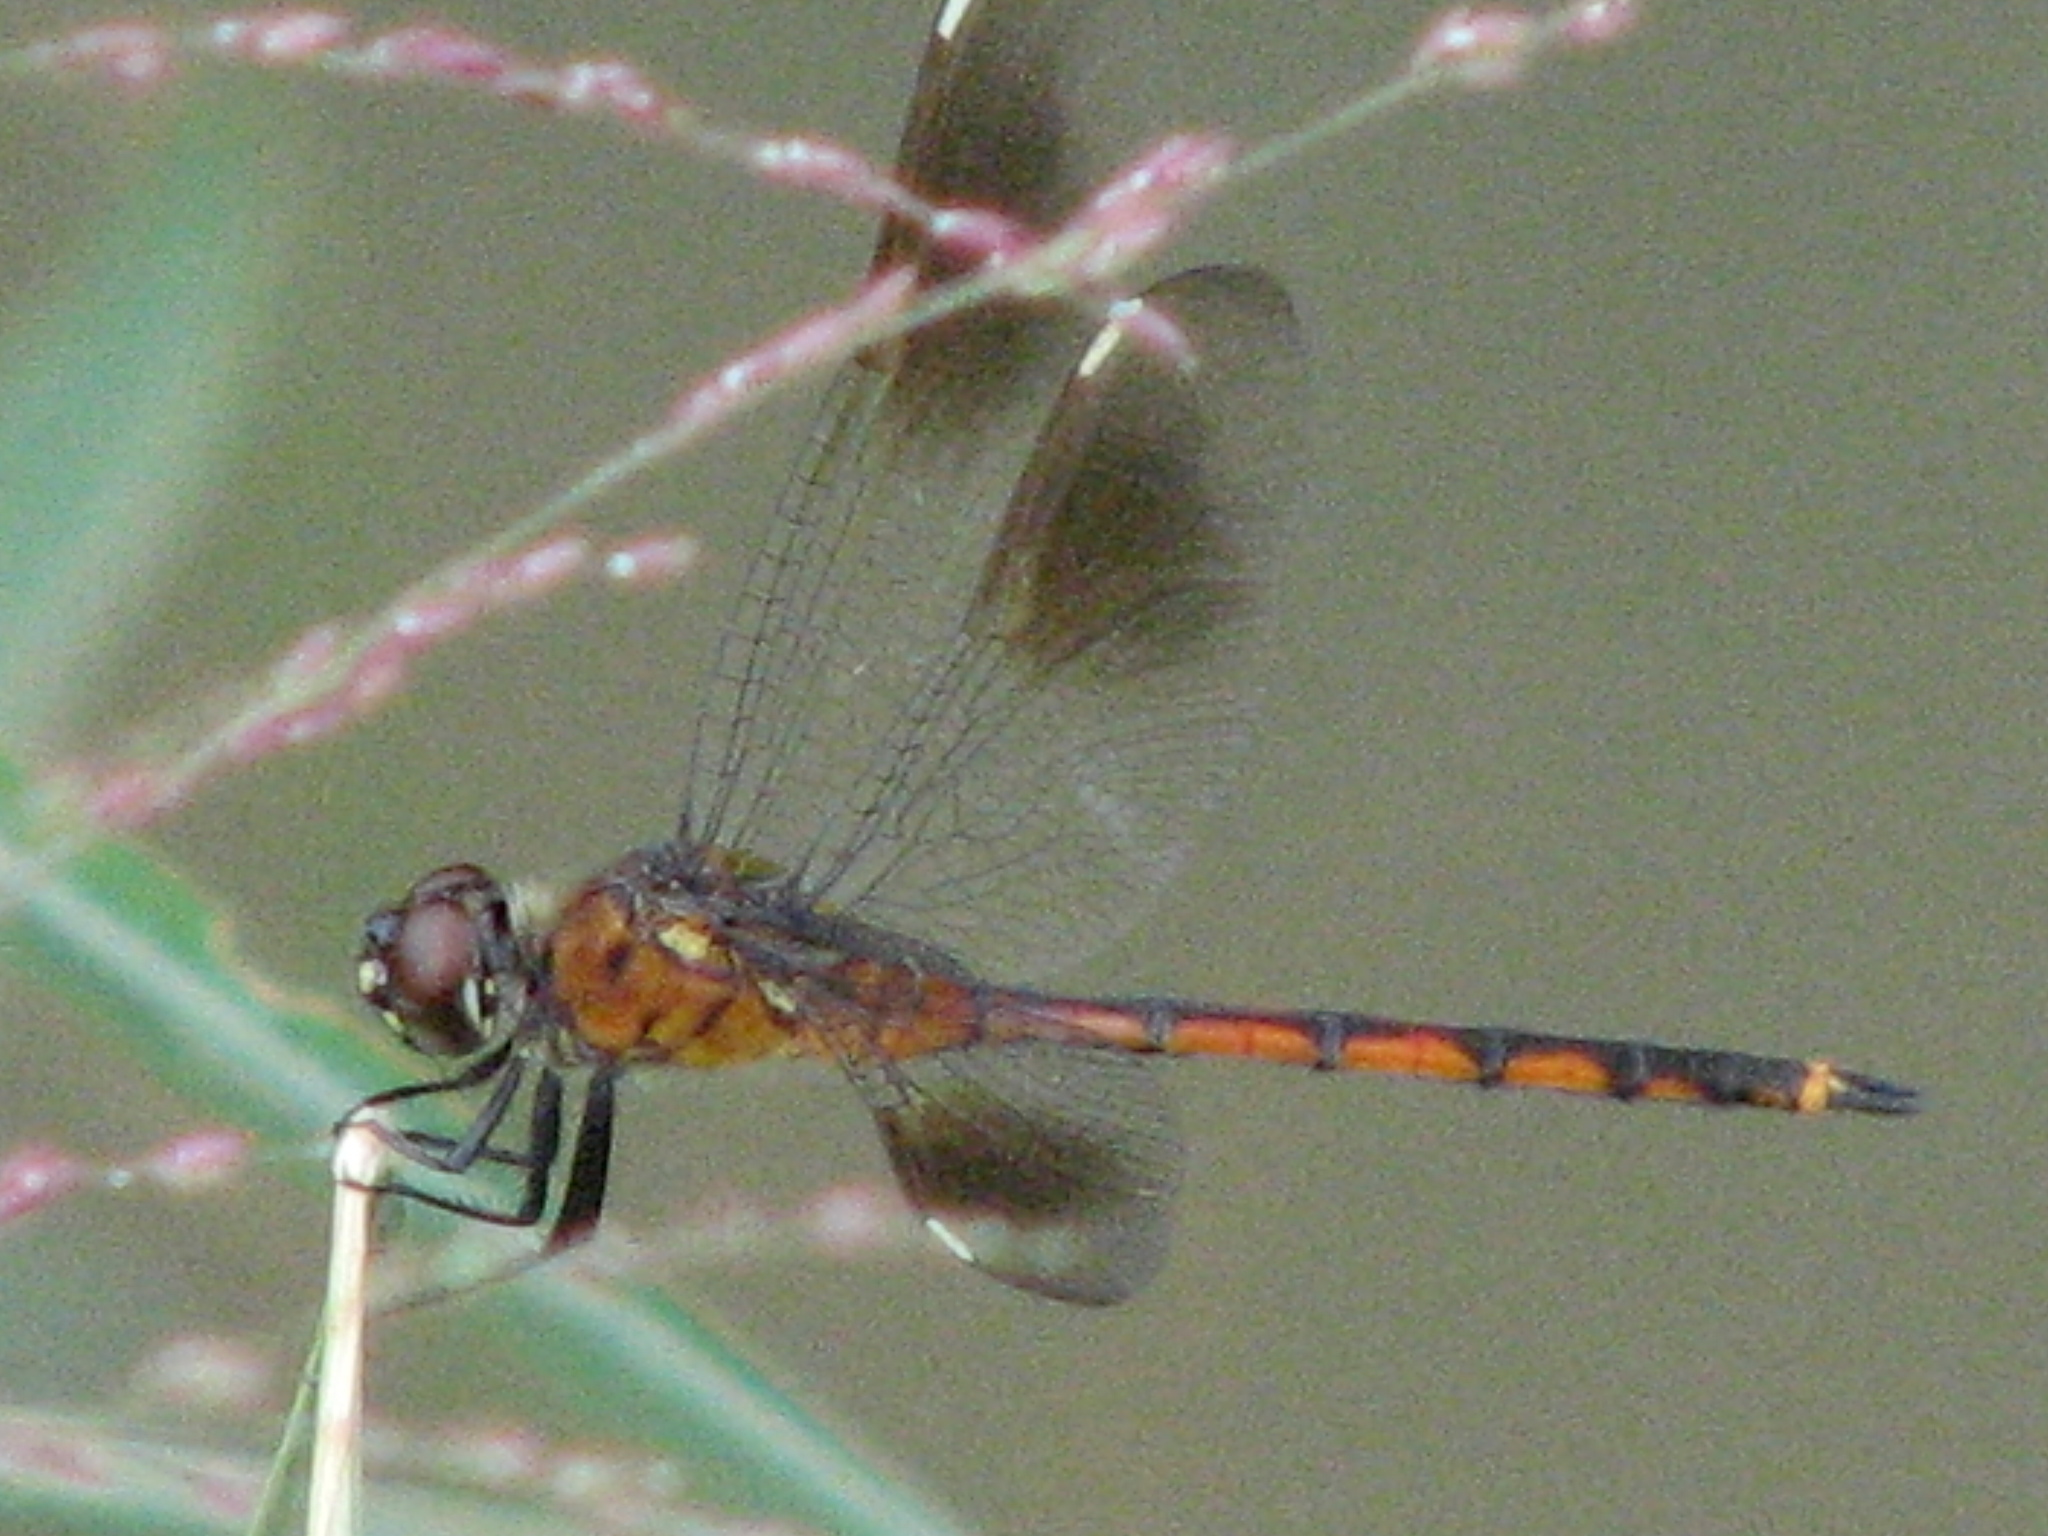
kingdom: Animalia
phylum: Arthropoda
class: Insecta
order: Odonata
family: Libellulidae
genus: Brachymesia
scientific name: Brachymesia gravida
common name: Four-spotted pennant
